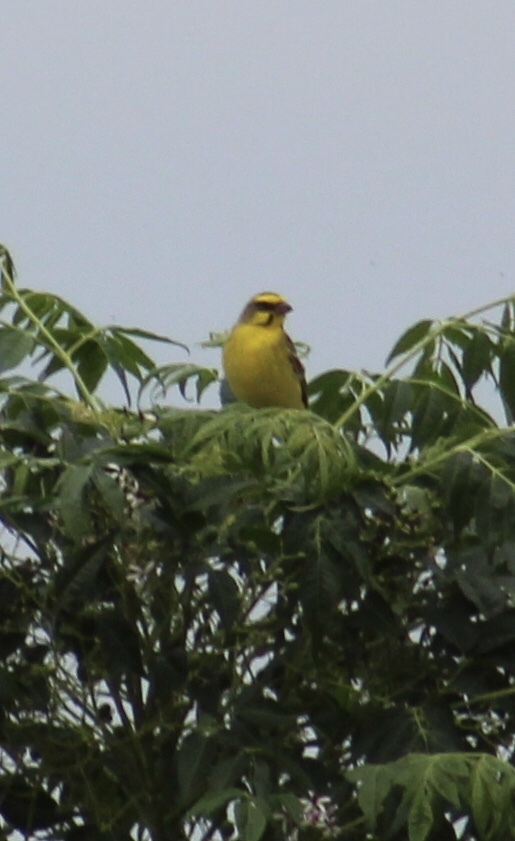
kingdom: Animalia
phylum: Chordata
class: Aves
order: Passeriformes
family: Fringillidae
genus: Crithagra
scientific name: Crithagra mozambica
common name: Yellow-fronted canary
